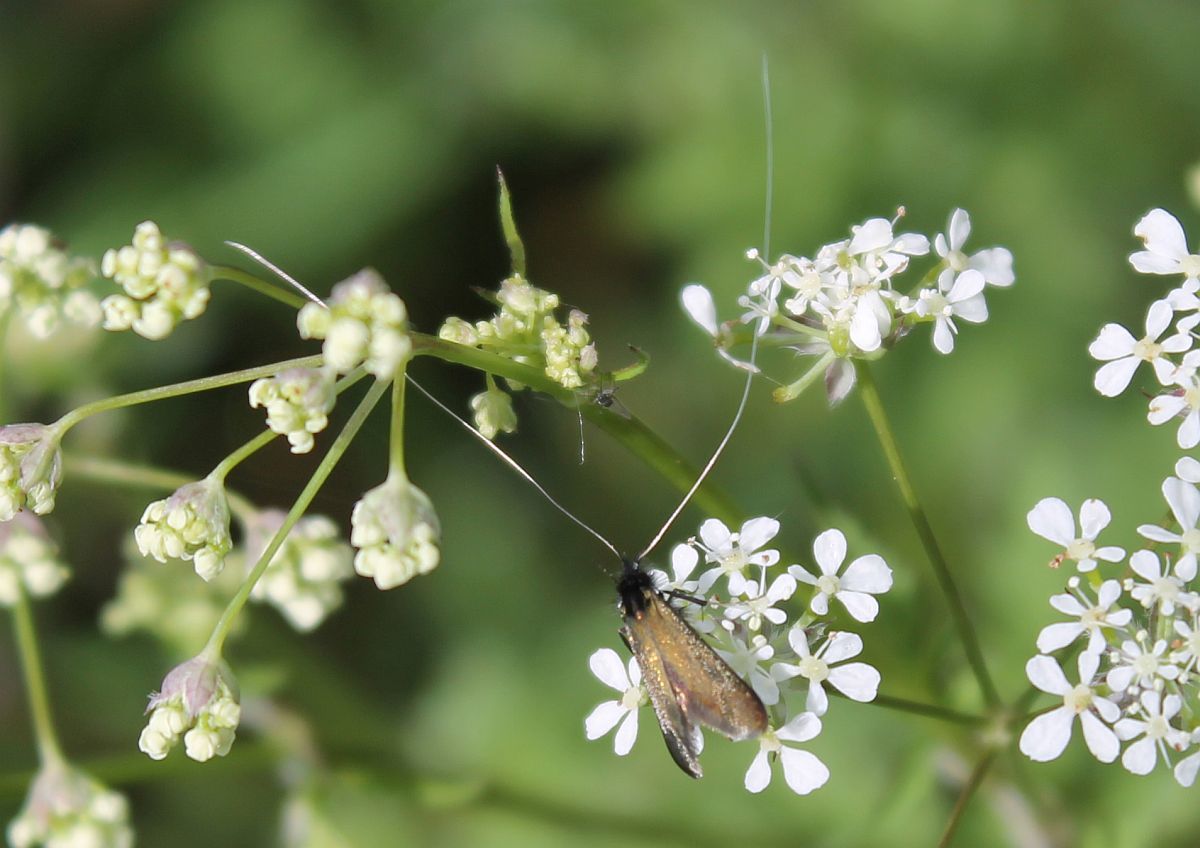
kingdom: Animalia
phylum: Arthropoda
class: Insecta
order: Lepidoptera
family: Adelidae
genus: Adela
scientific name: Adela viridella
